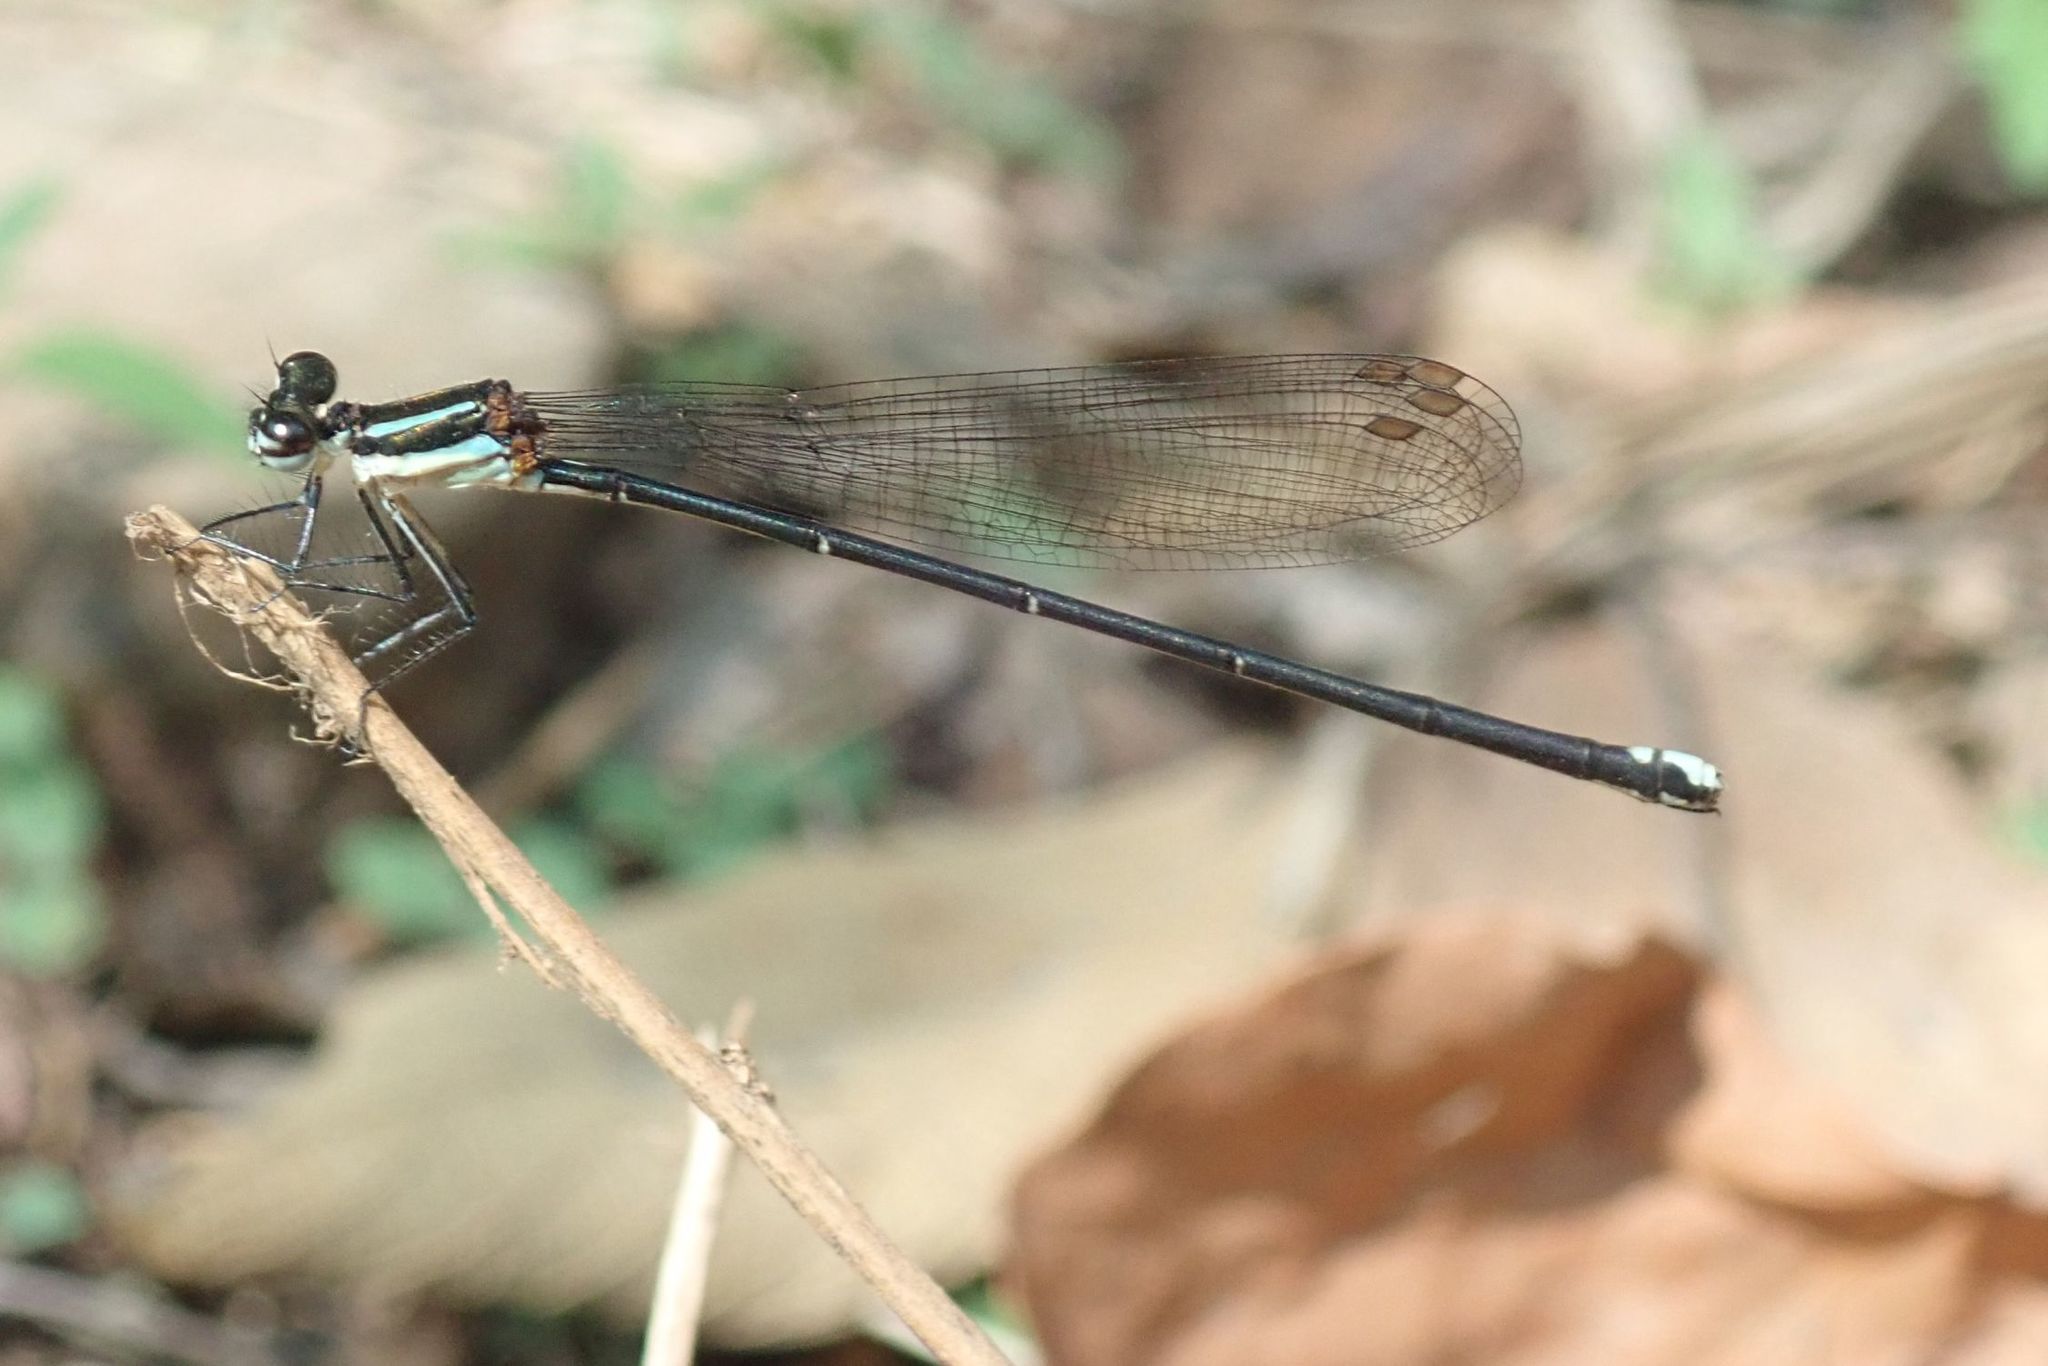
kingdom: Animalia
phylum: Arthropoda
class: Insecta
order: Odonata
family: Coenagrionidae
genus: Pseudagrion
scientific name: Pseudagrion salisburyense
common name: Slate sprite
